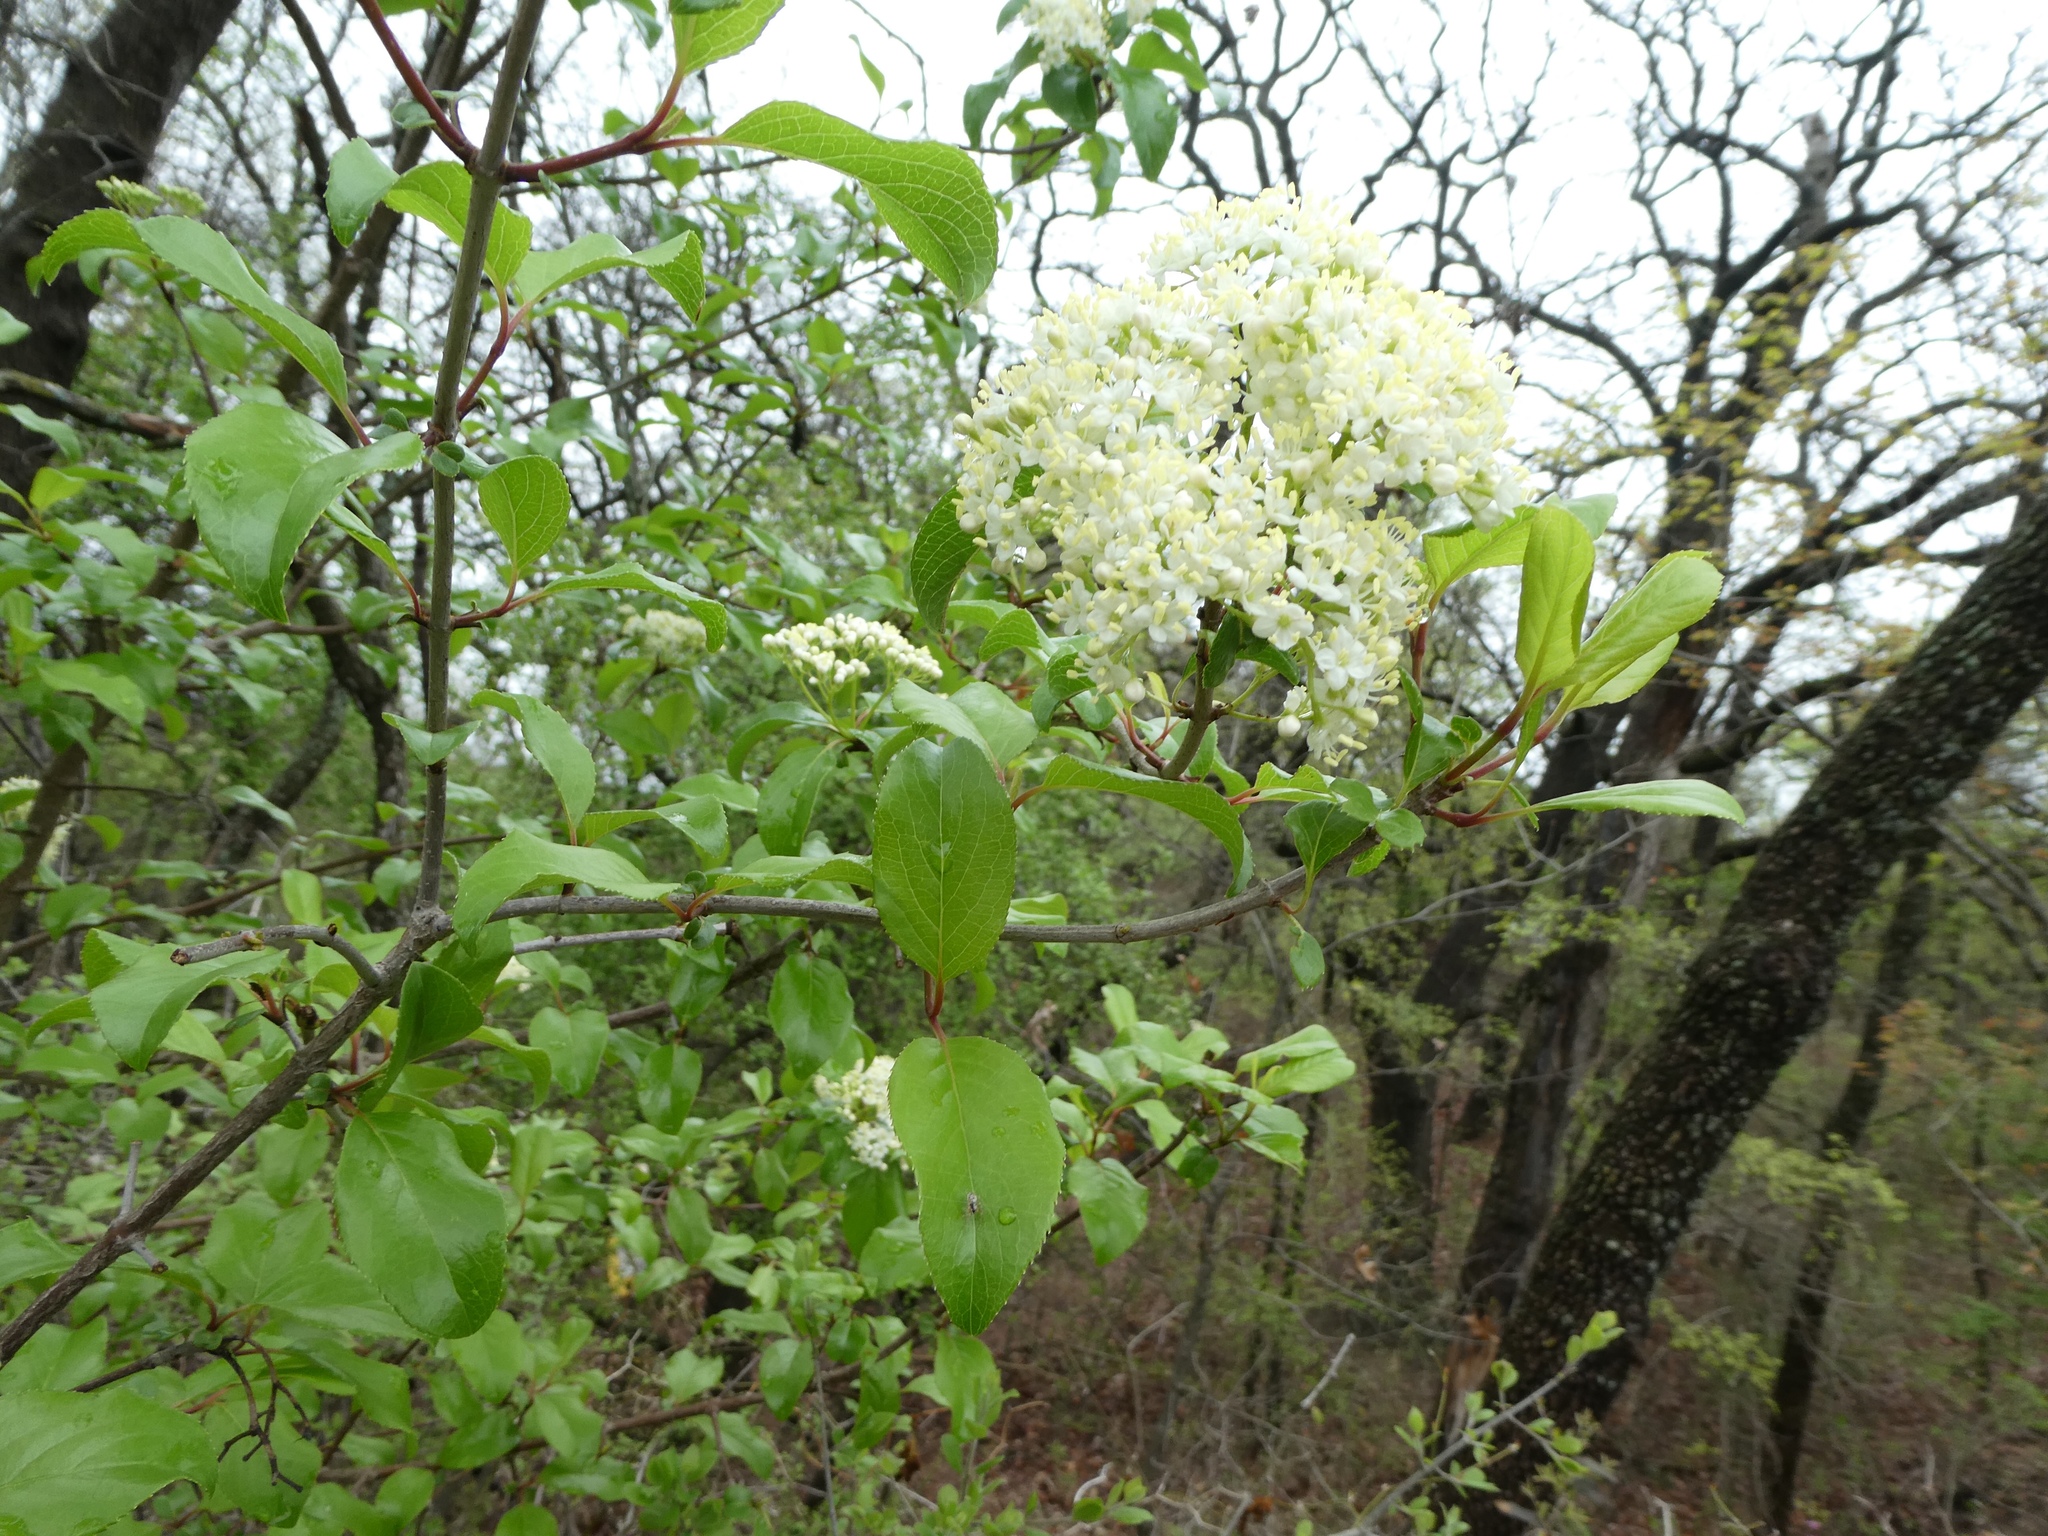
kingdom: Plantae
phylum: Tracheophyta
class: Magnoliopsida
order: Dipsacales
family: Viburnaceae
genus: Viburnum
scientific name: Viburnum rufidulum
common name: Blue haw
